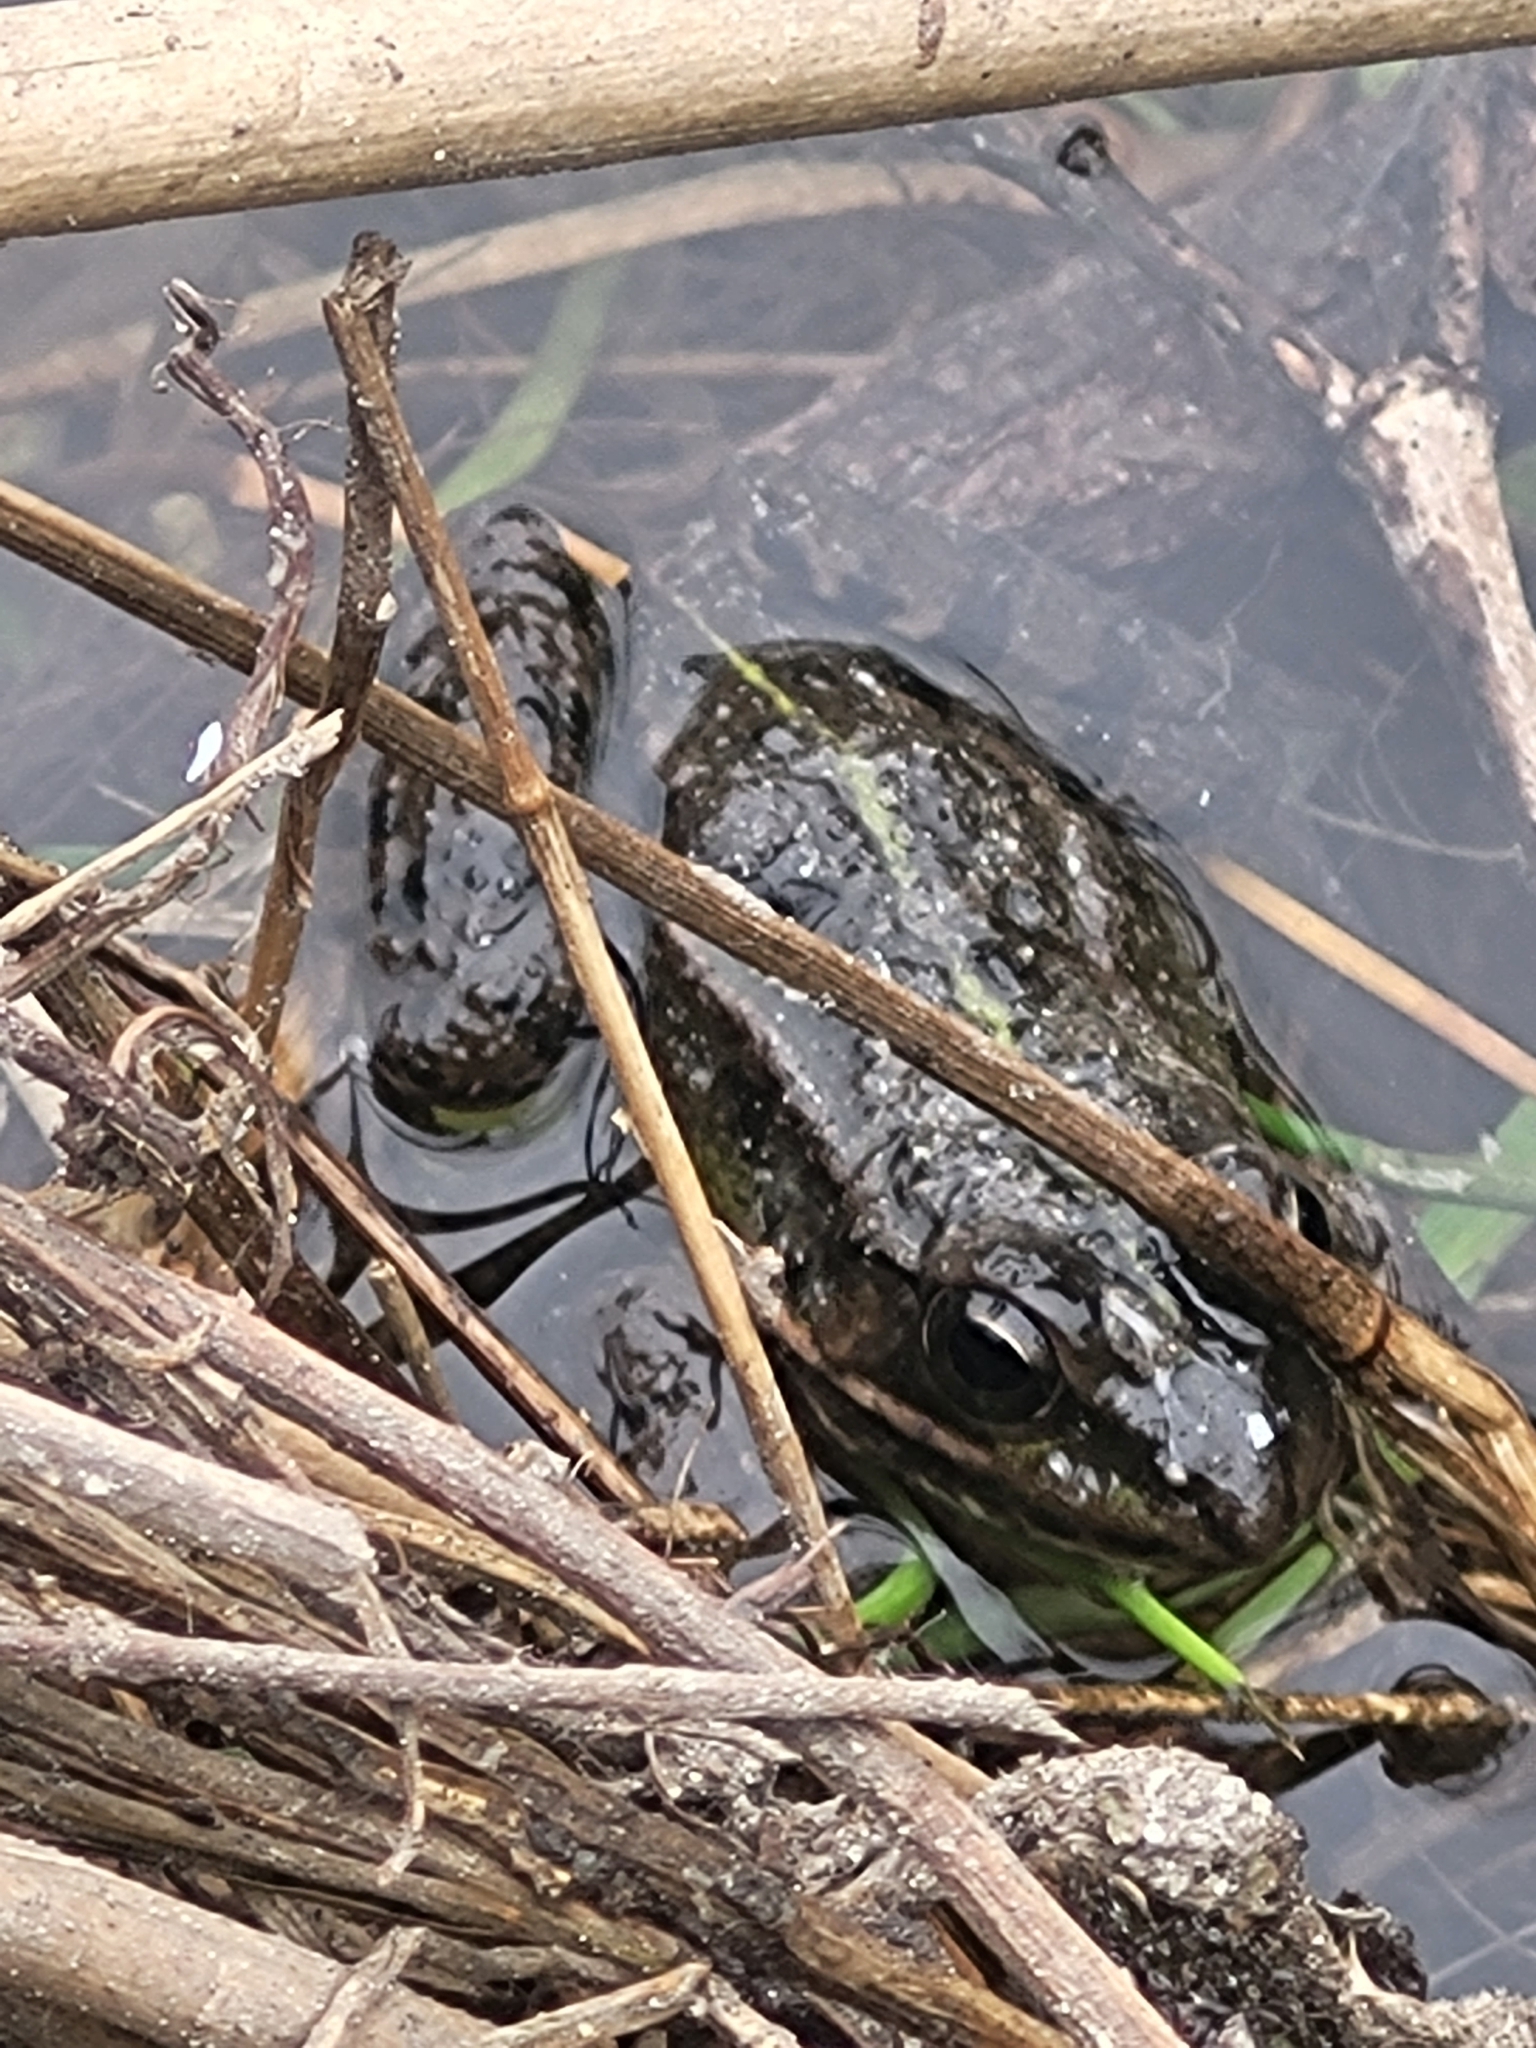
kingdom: Animalia
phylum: Chordata
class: Amphibia
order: Anura
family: Ranidae
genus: Pelophylax
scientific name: Pelophylax
